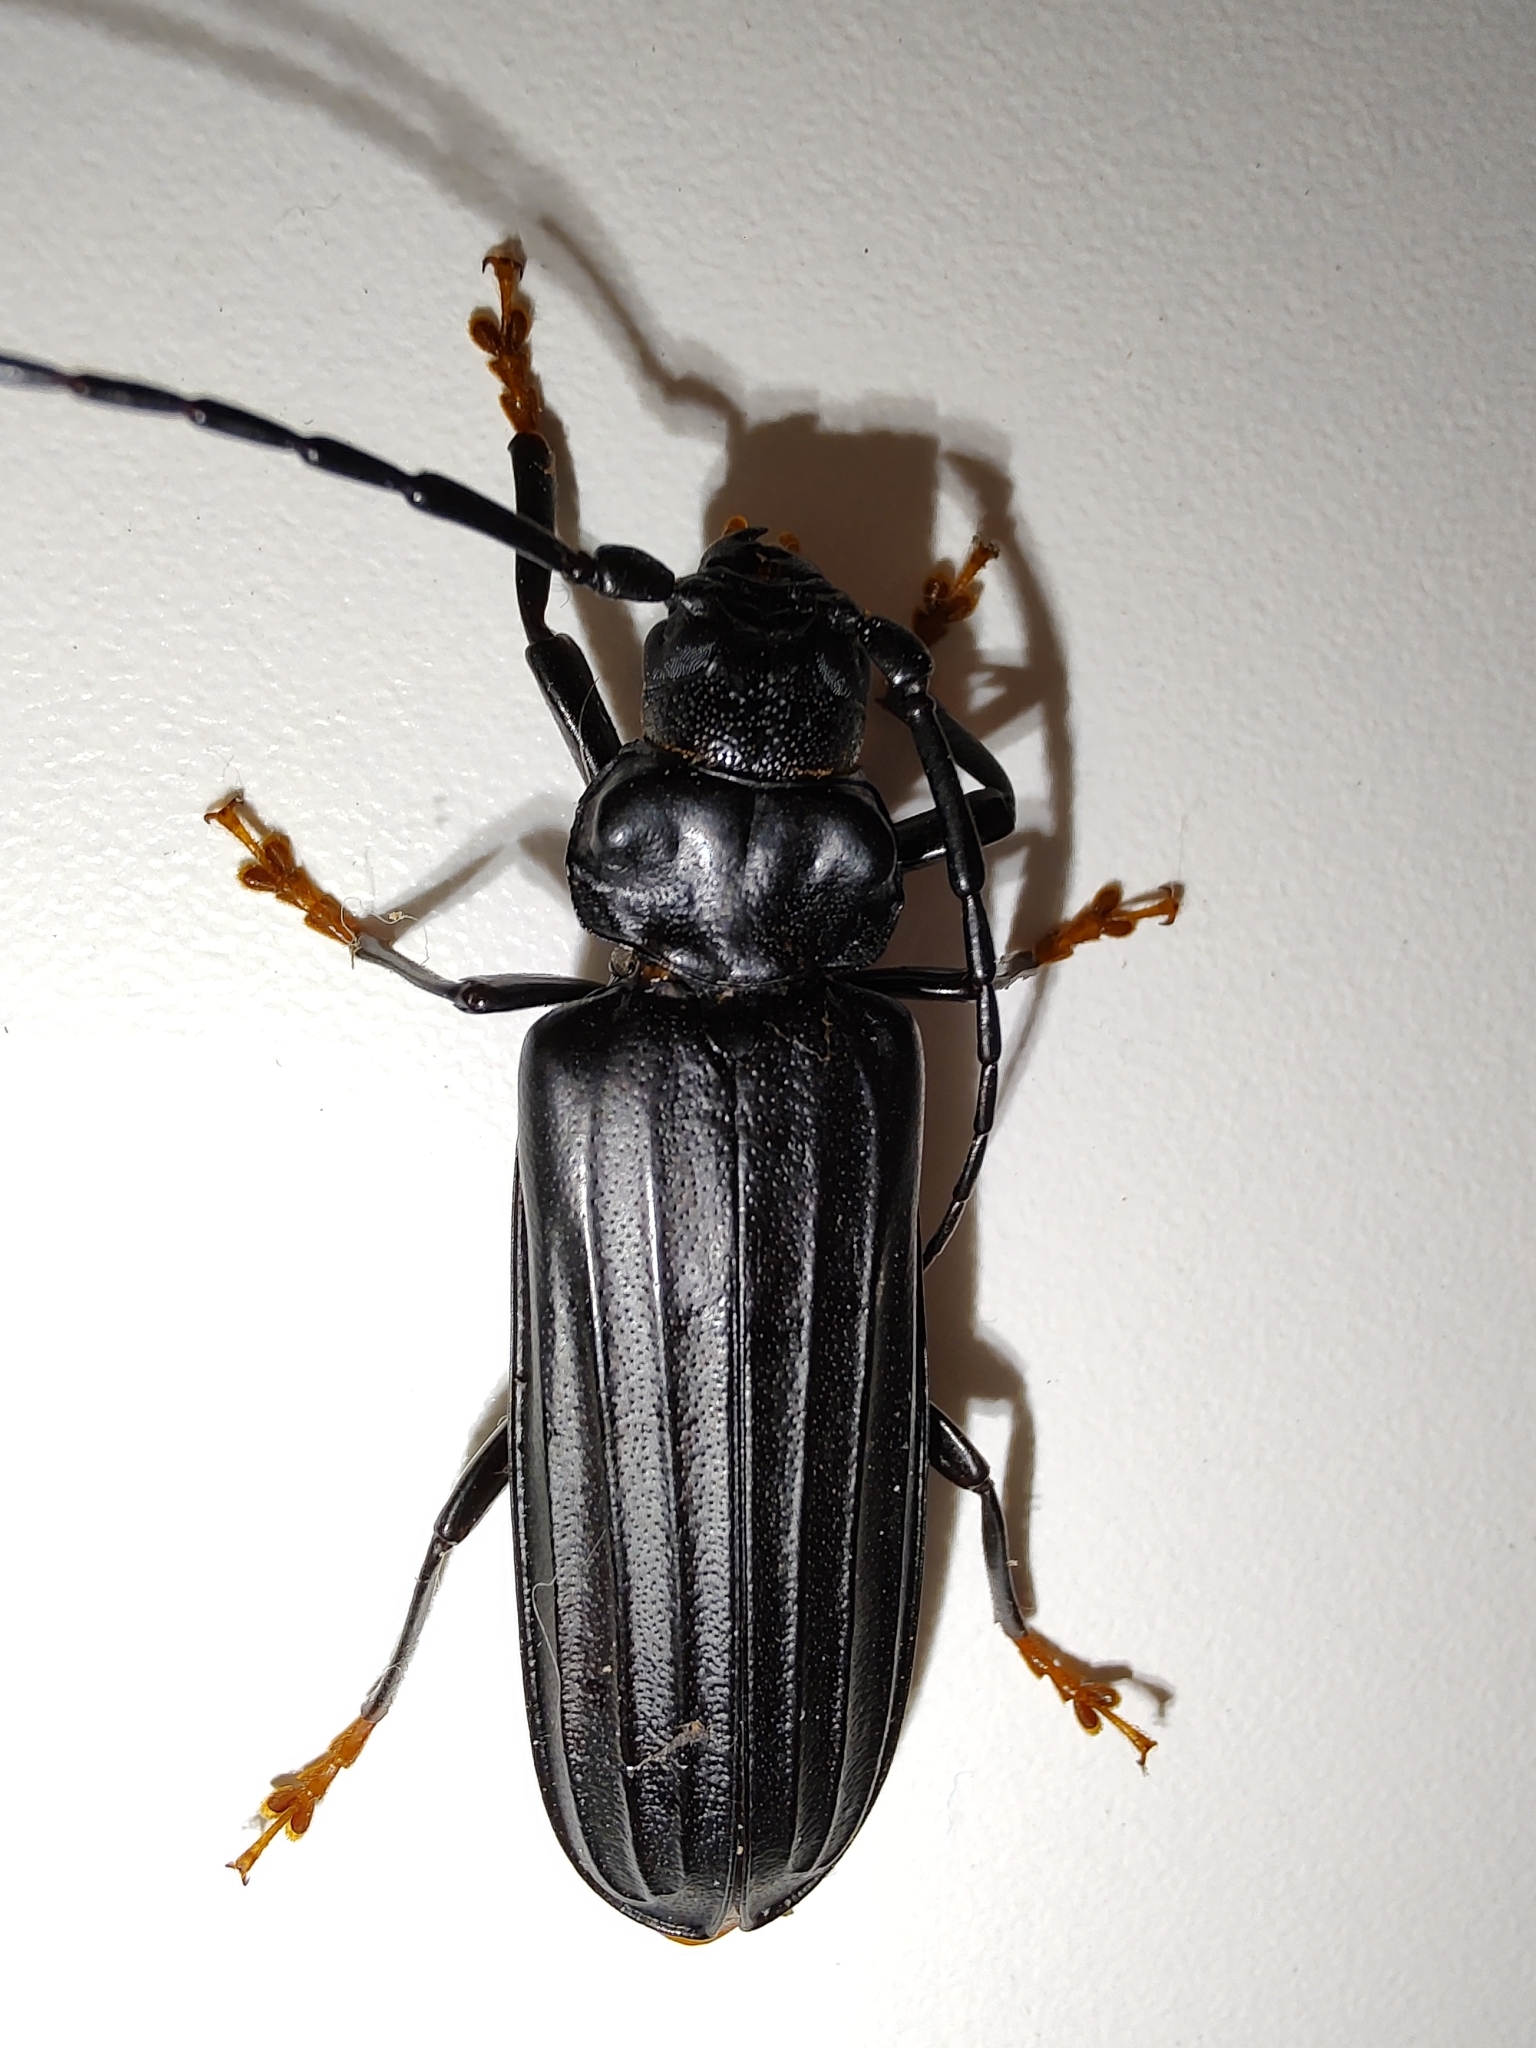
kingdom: Animalia
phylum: Arthropoda
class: Insecta
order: Coleoptera
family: Cerambycidae
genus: Chorenta
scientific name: Chorenta reticulata
